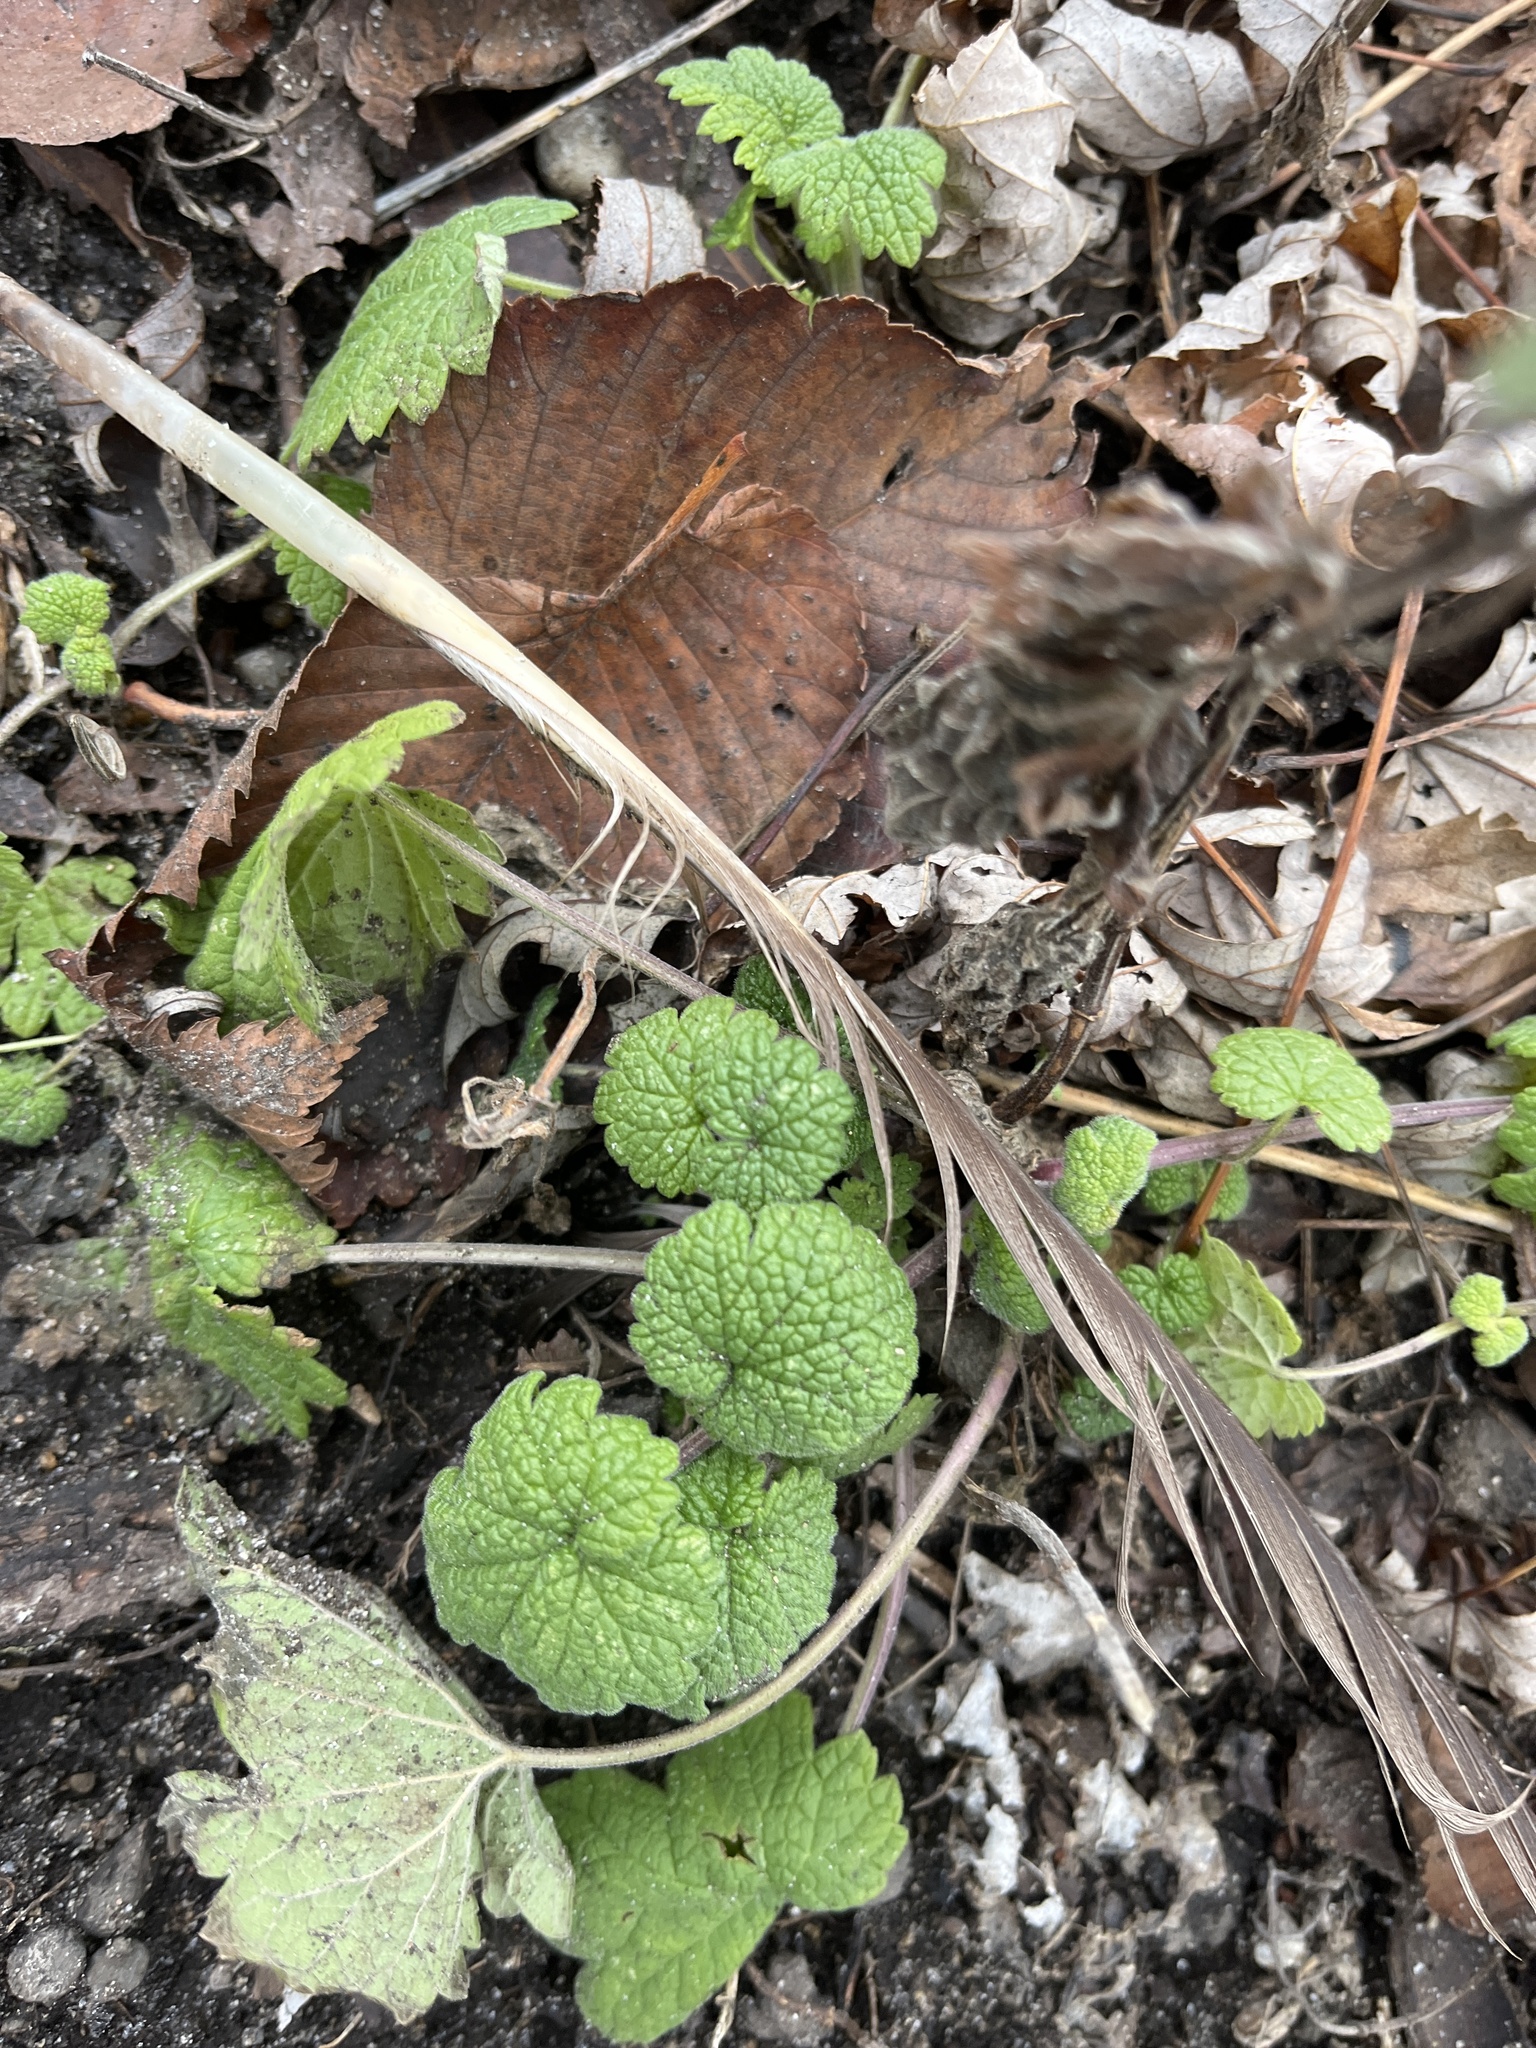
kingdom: Plantae
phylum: Tracheophyta
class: Magnoliopsida
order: Lamiales
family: Lamiaceae
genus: Leonurus
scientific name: Leonurus cardiaca
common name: Motherwort
